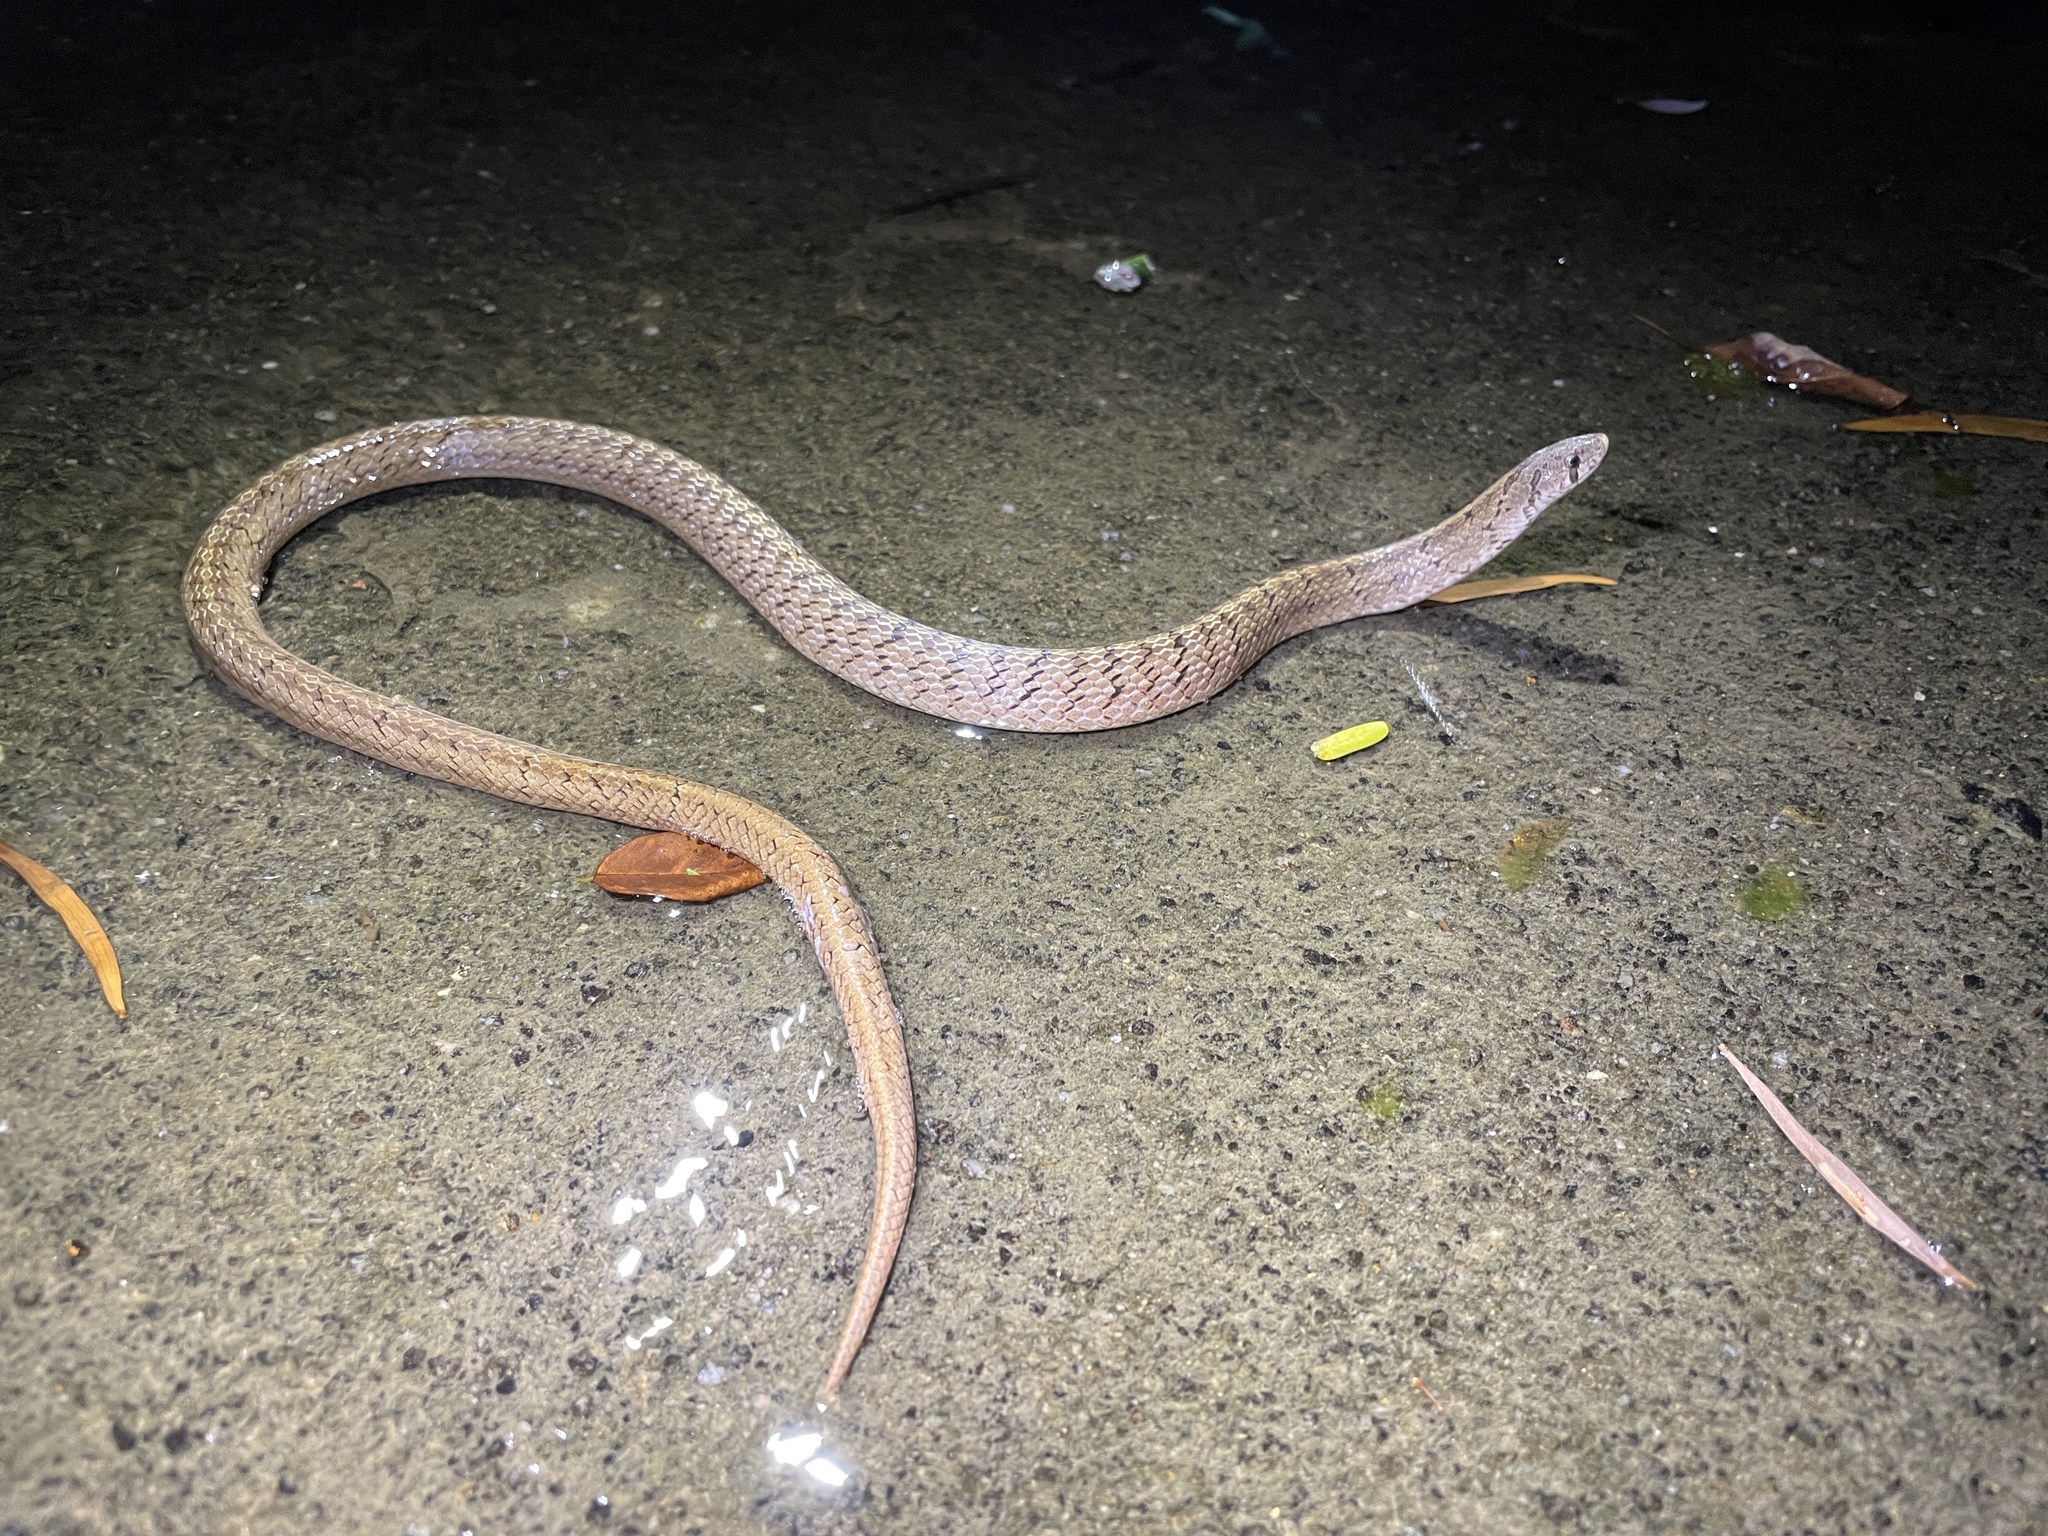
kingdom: Animalia
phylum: Chordata
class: Squamata
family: Colubridae
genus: Oligodon
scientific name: Oligodon formosanus
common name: Formosa kukri snake
